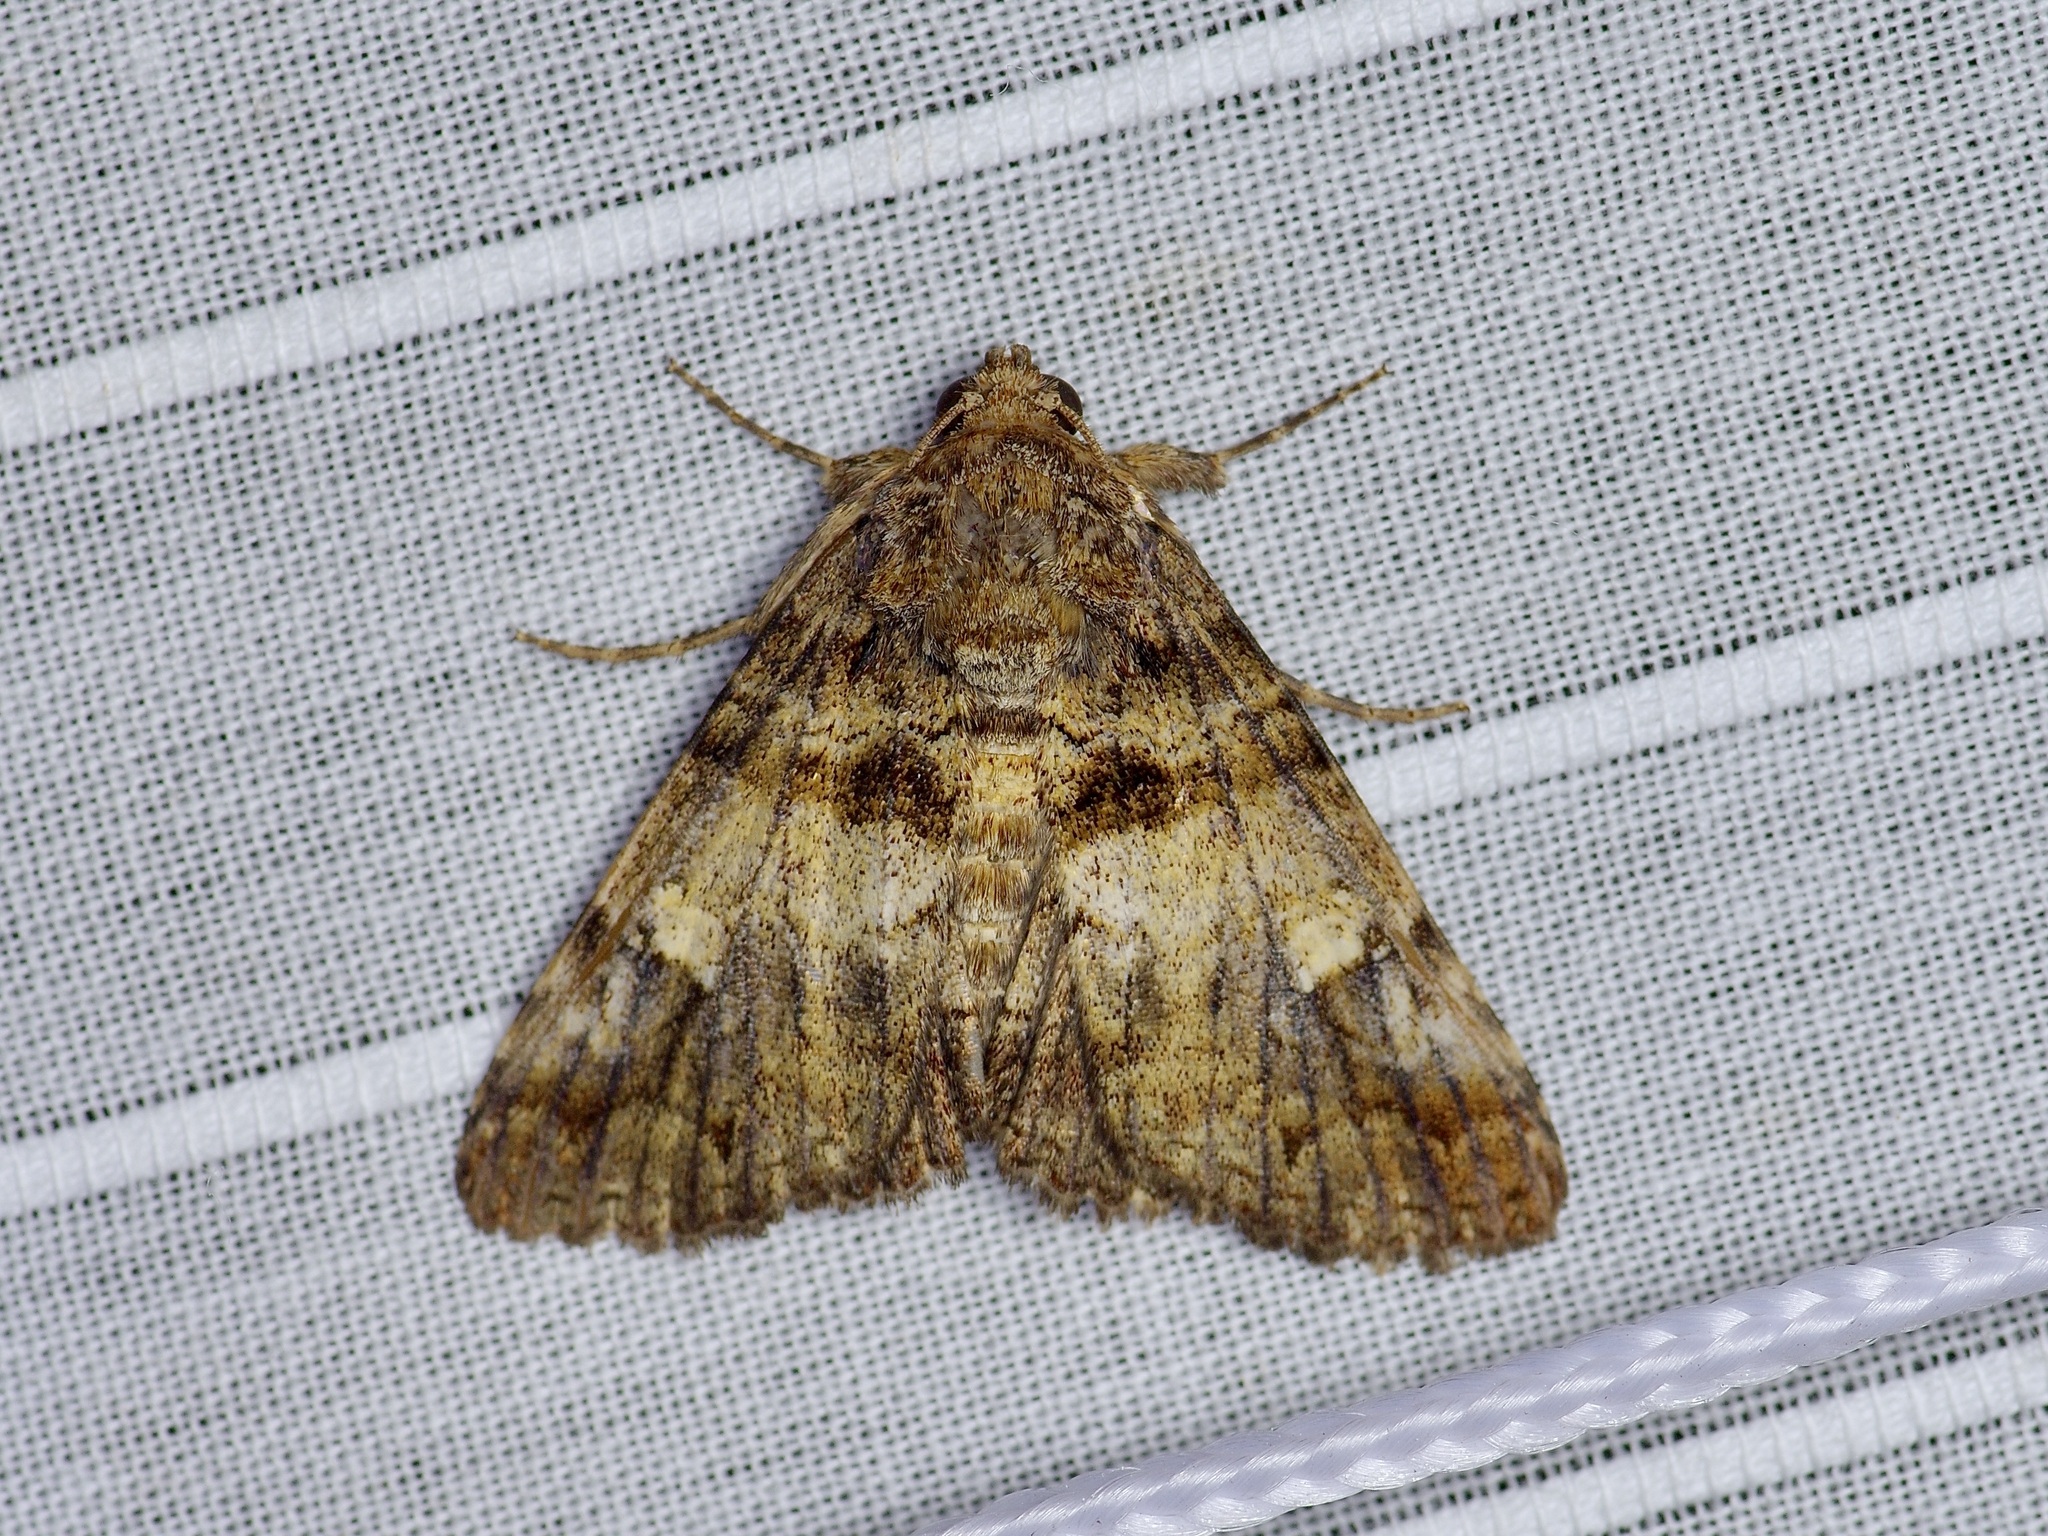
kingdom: Animalia
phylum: Arthropoda
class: Insecta
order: Lepidoptera
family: Erebidae
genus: Metria
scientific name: Metria amella
